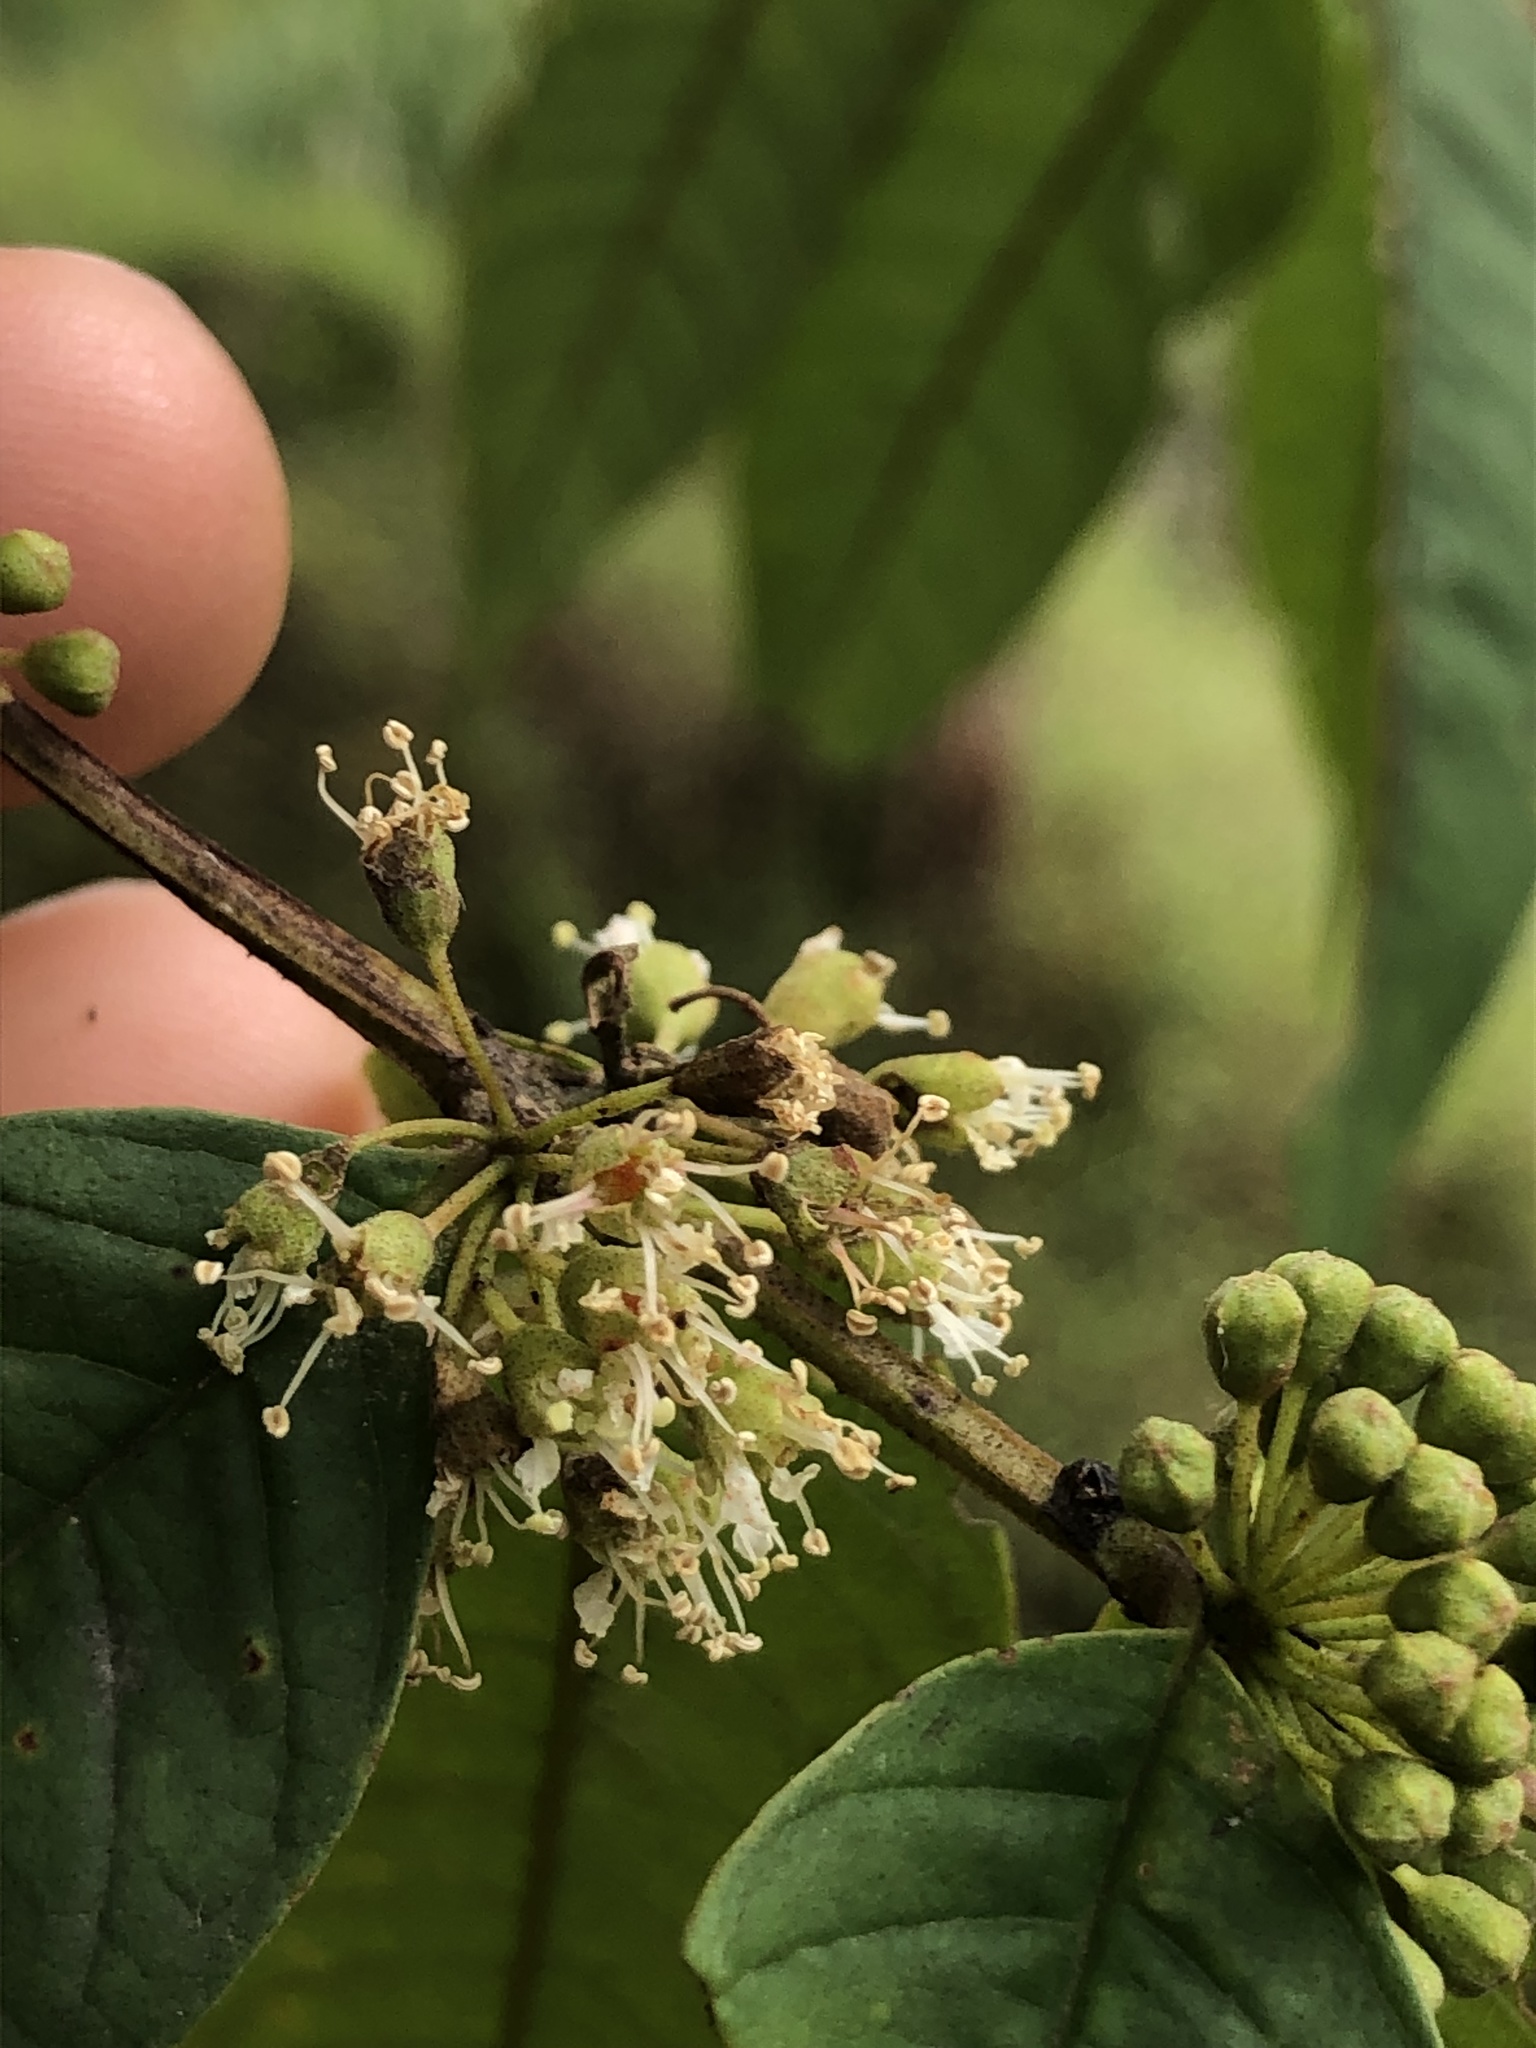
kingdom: Plantae
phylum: Tracheophyta
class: Magnoliopsida
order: Myrtales
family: Lythraceae
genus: Adenaria
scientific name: Adenaria floribunda
